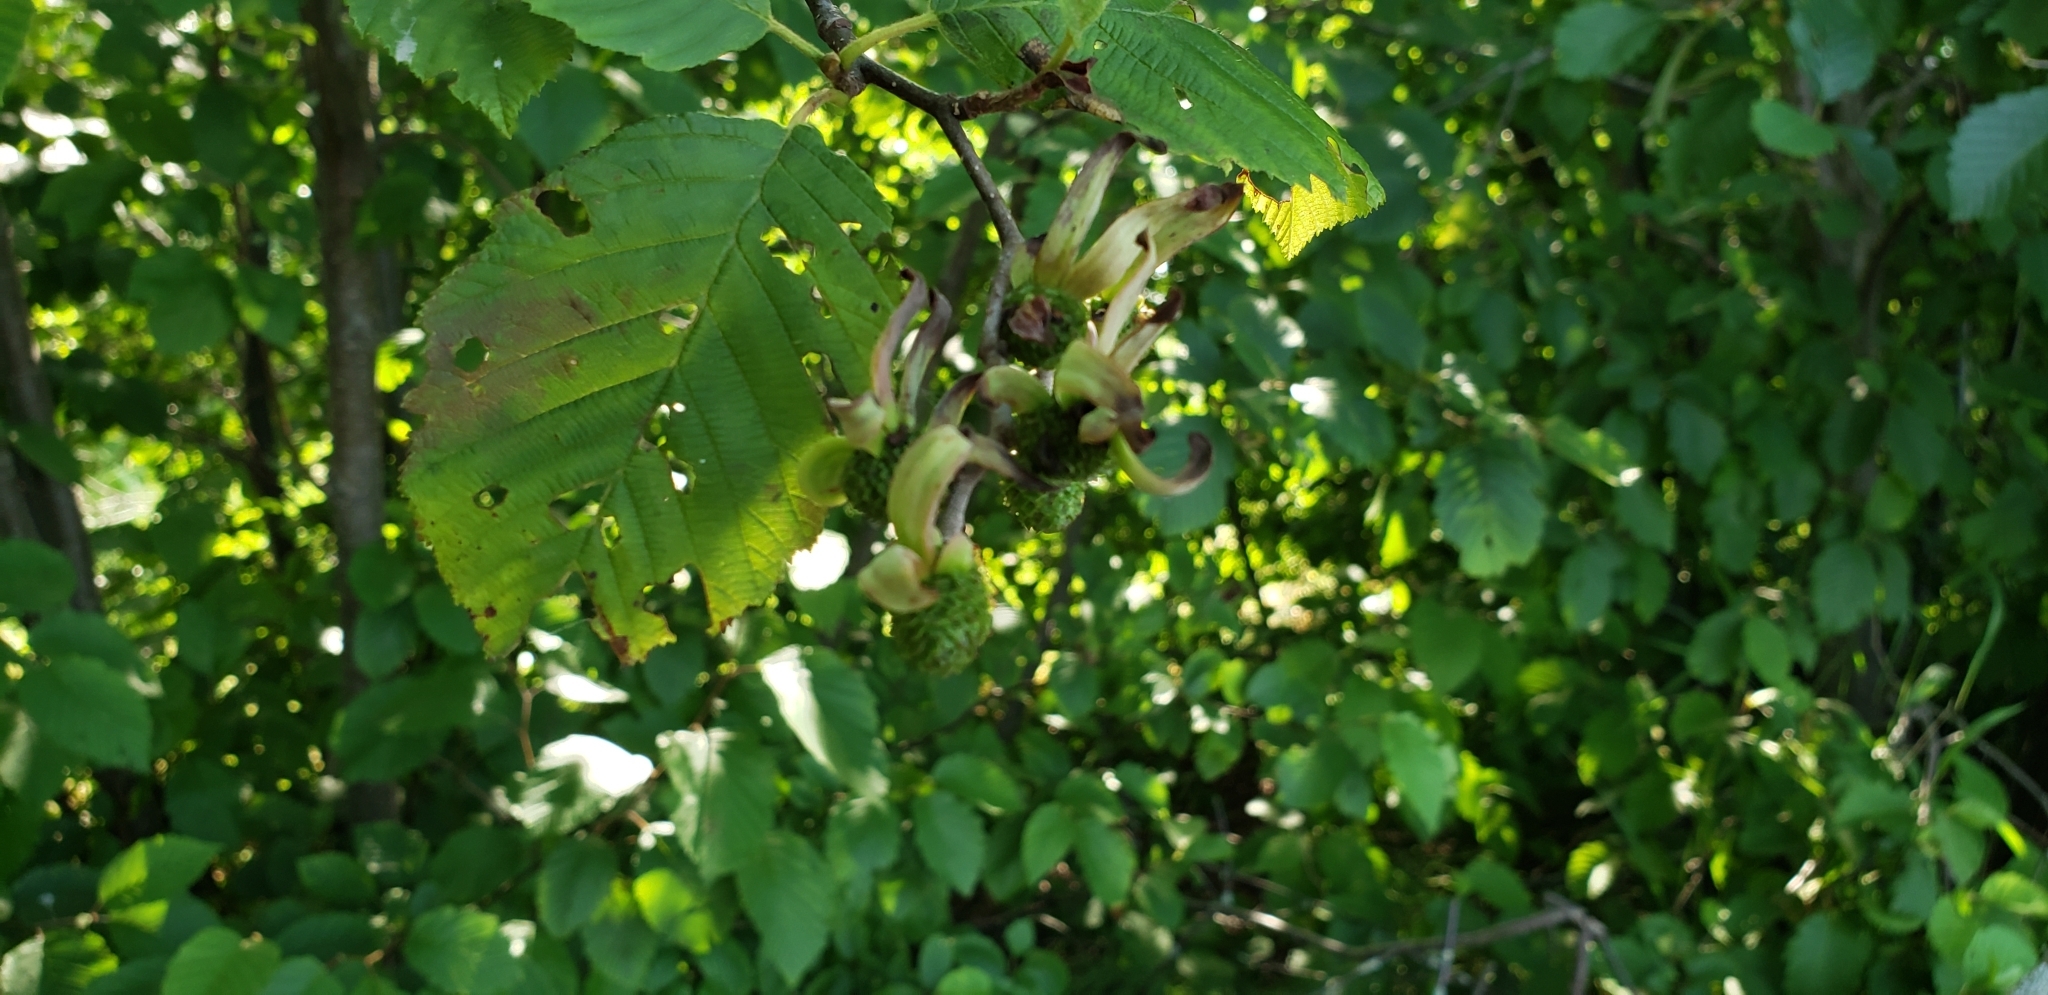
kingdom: Plantae
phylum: Tracheophyta
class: Magnoliopsida
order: Fagales
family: Betulaceae
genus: Alnus
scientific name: Alnus incana
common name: Grey alder
